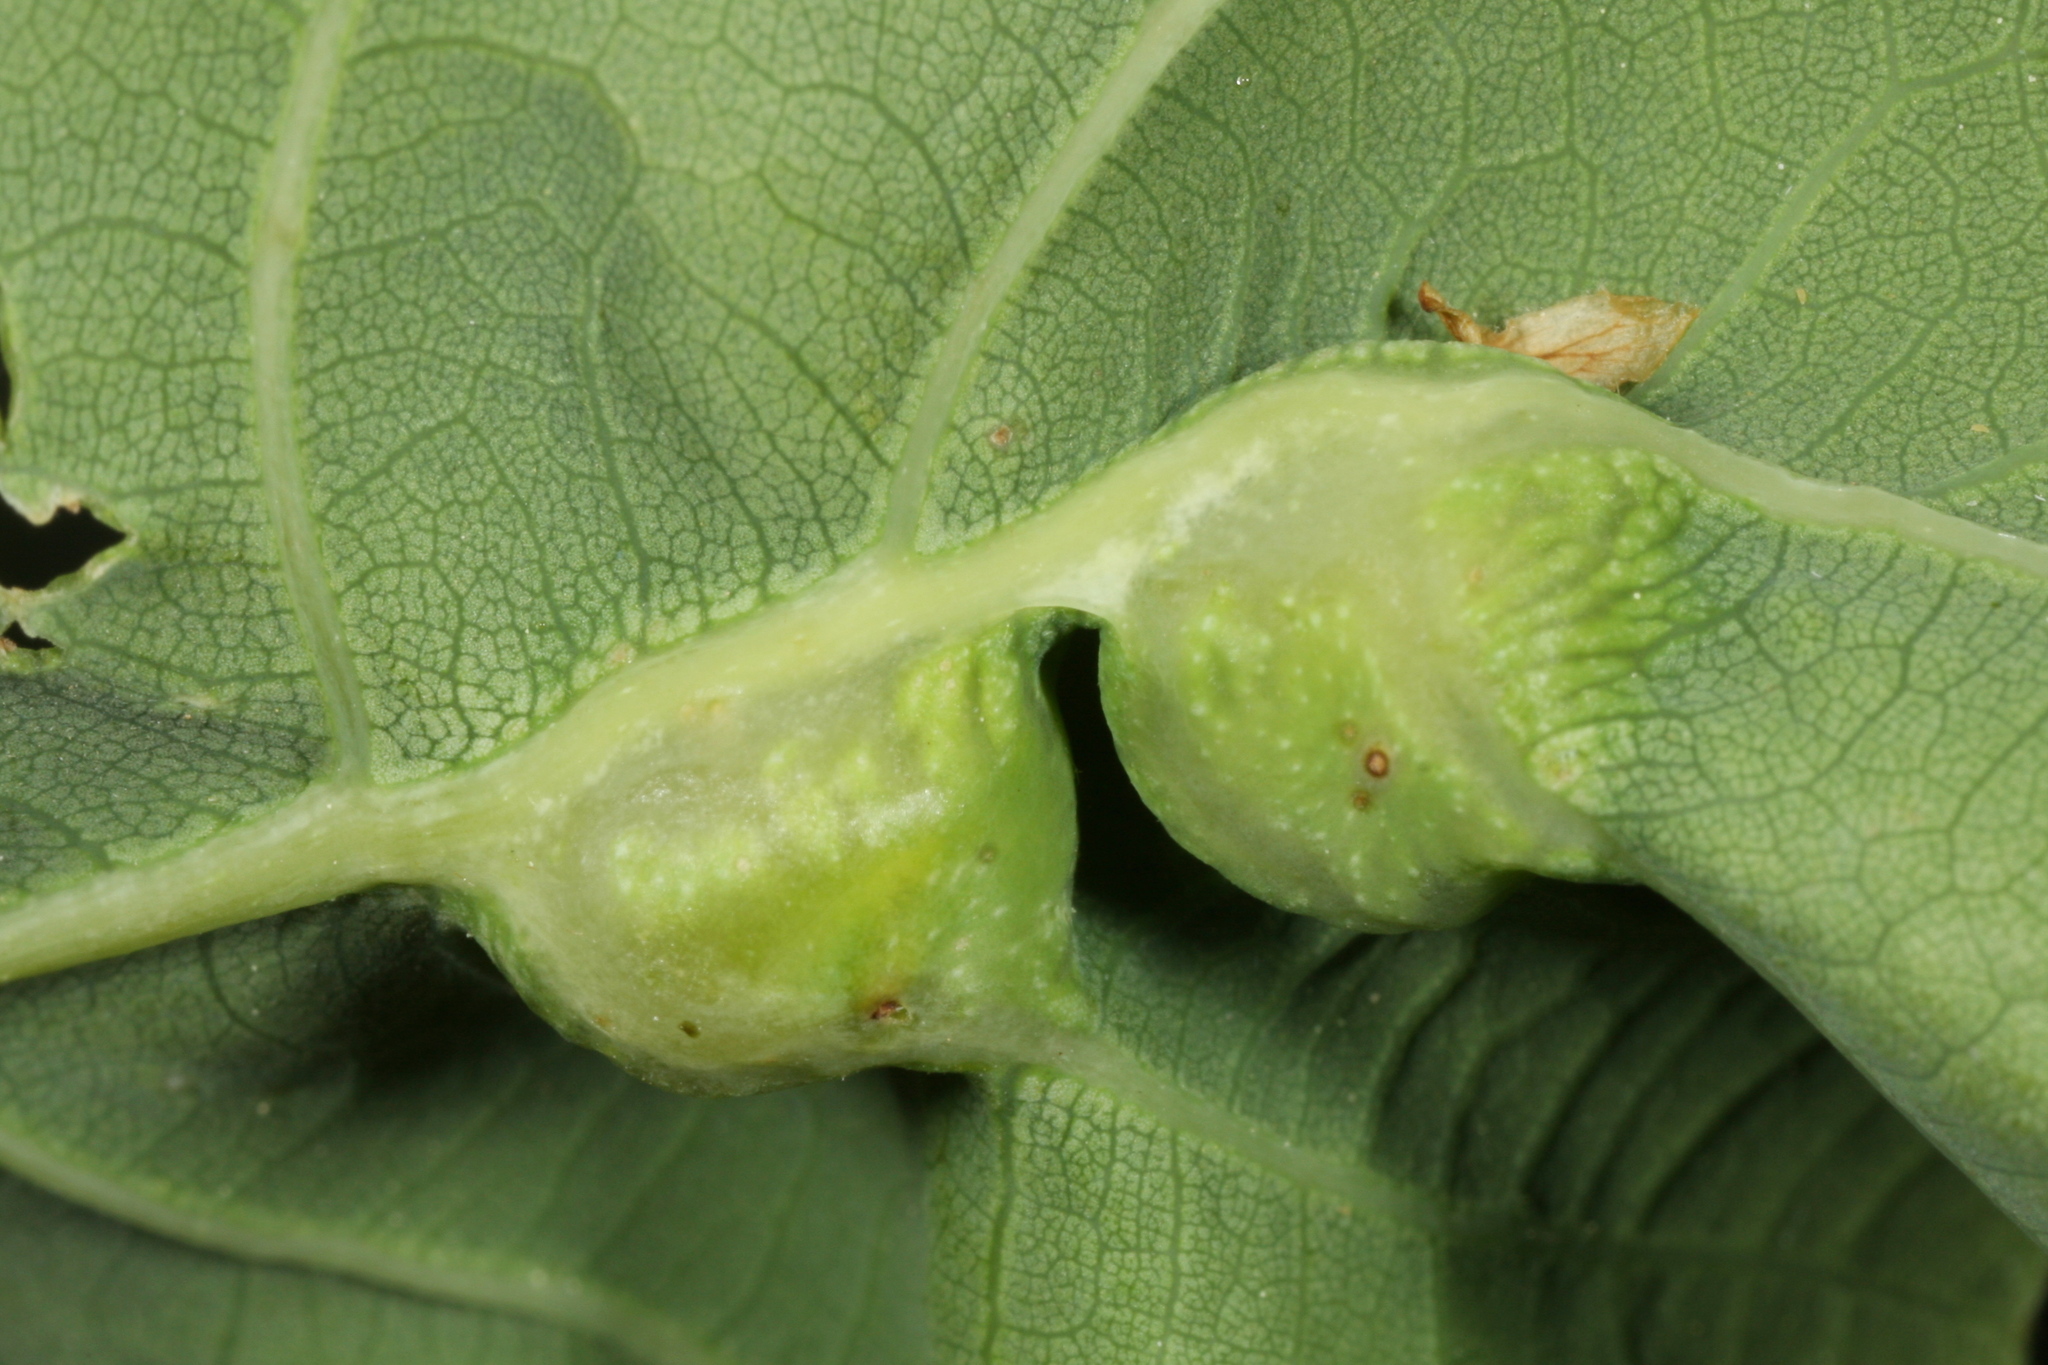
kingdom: Animalia
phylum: Arthropoda
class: Insecta
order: Hymenoptera
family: Cynipidae
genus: Andricus
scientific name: Andricus curvator
